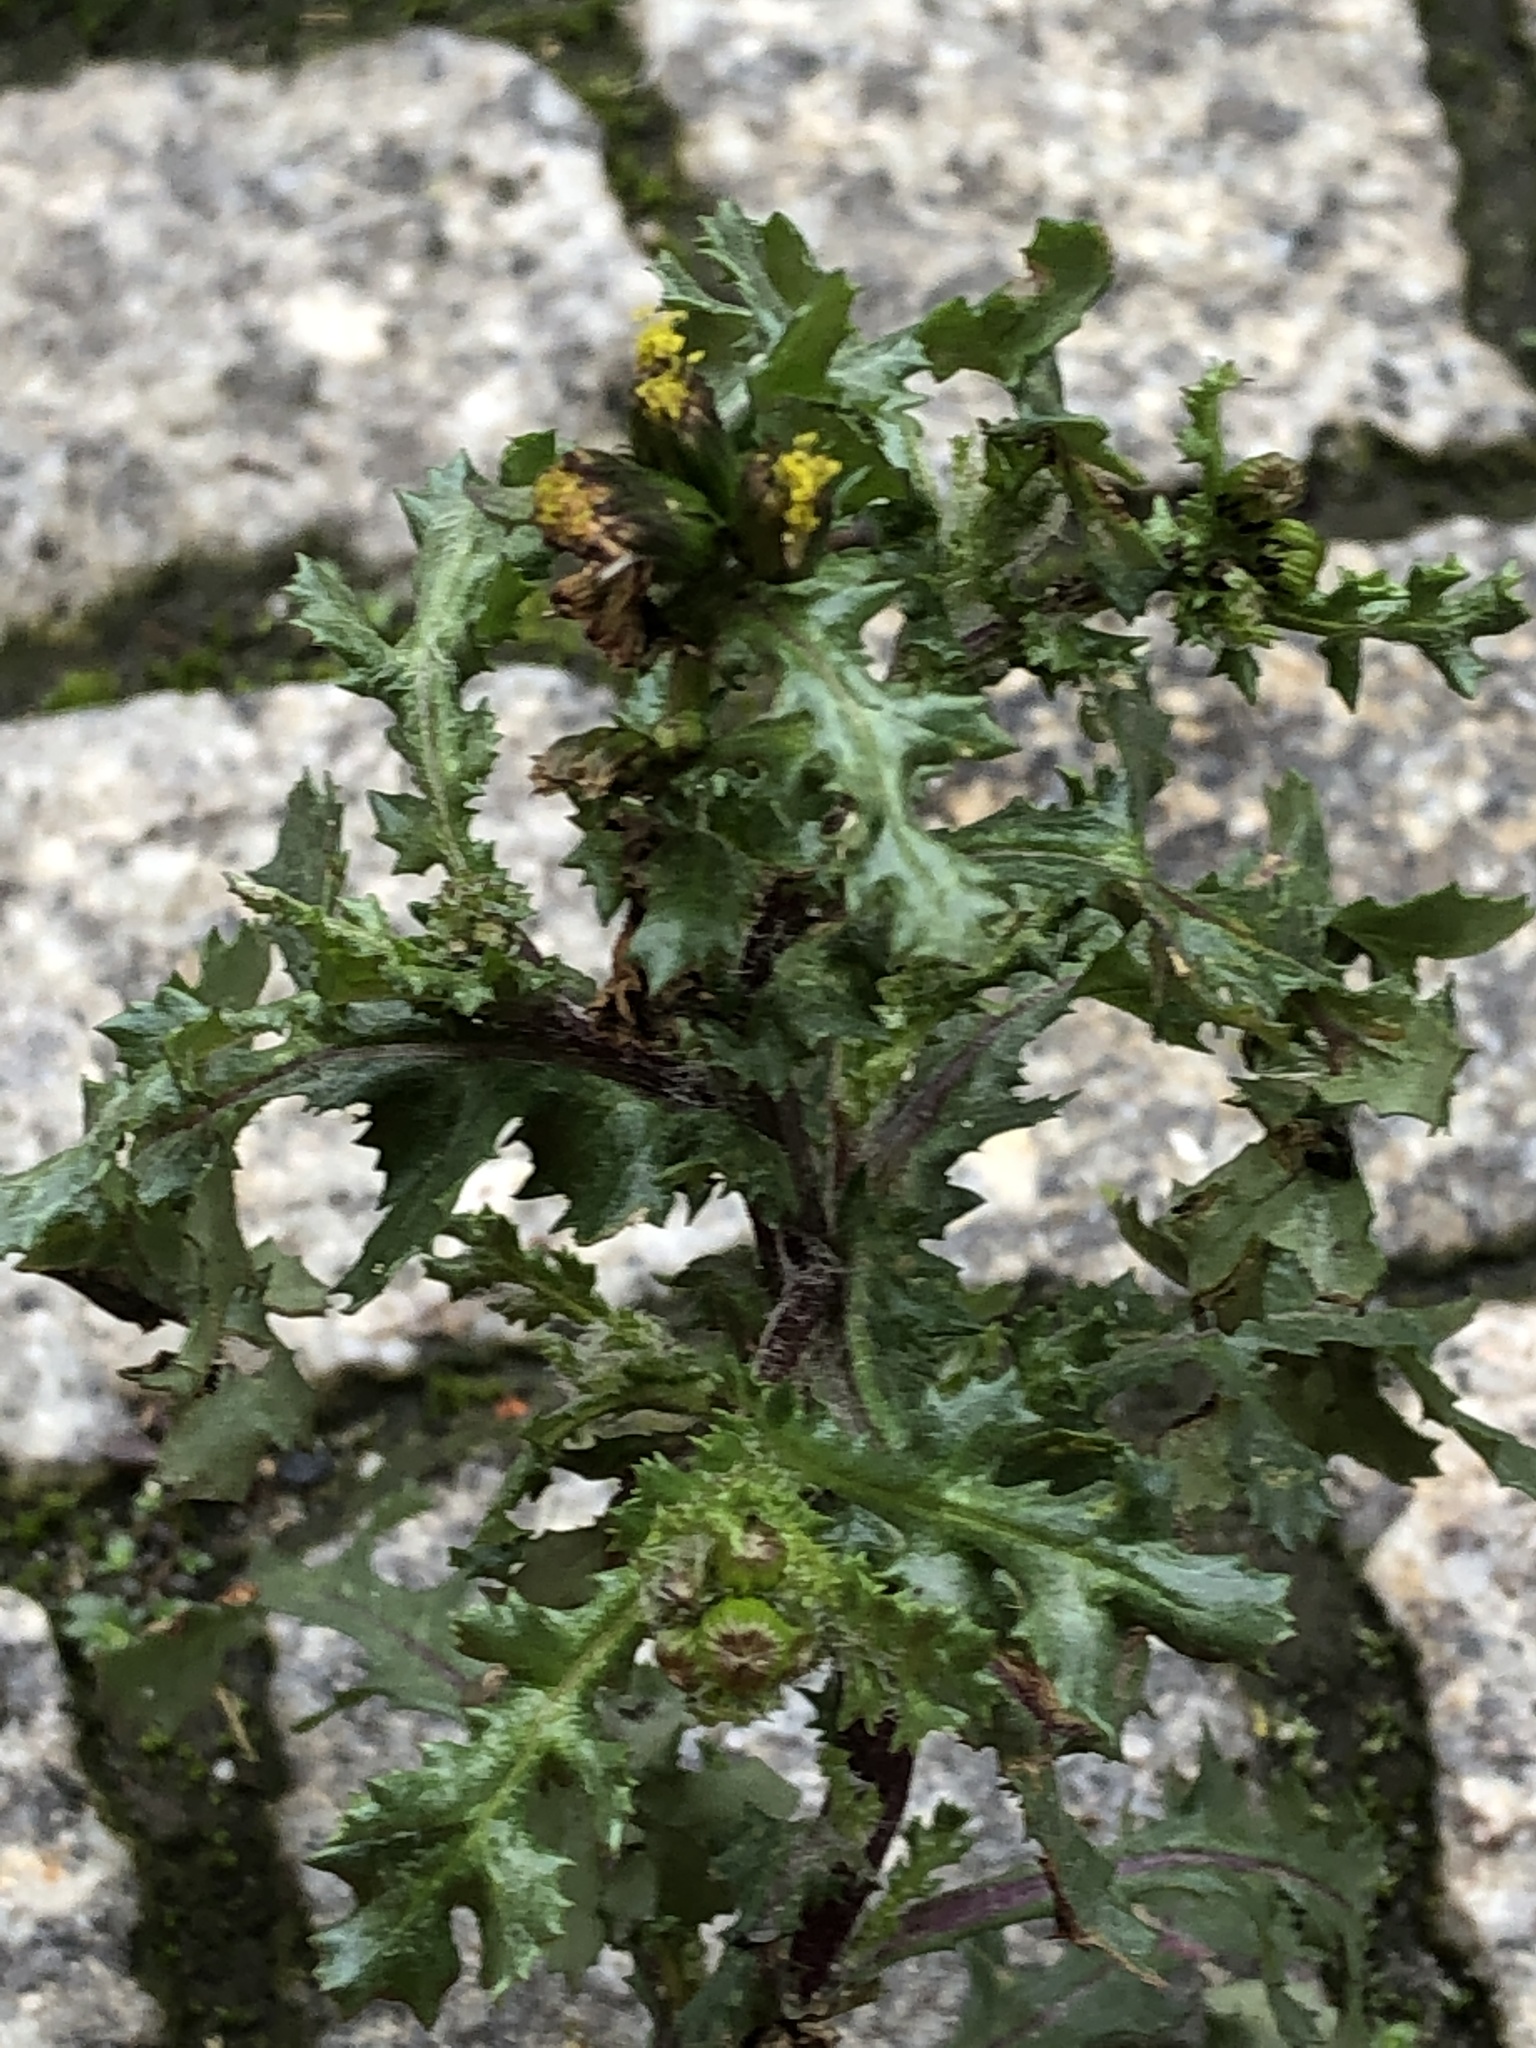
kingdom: Plantae
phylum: Tracheophyta
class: Magnoliopsida
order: Asterales
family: Asteraceae
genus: Senecio
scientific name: Senecio vulgaris
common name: Old-man-in-the-spring
